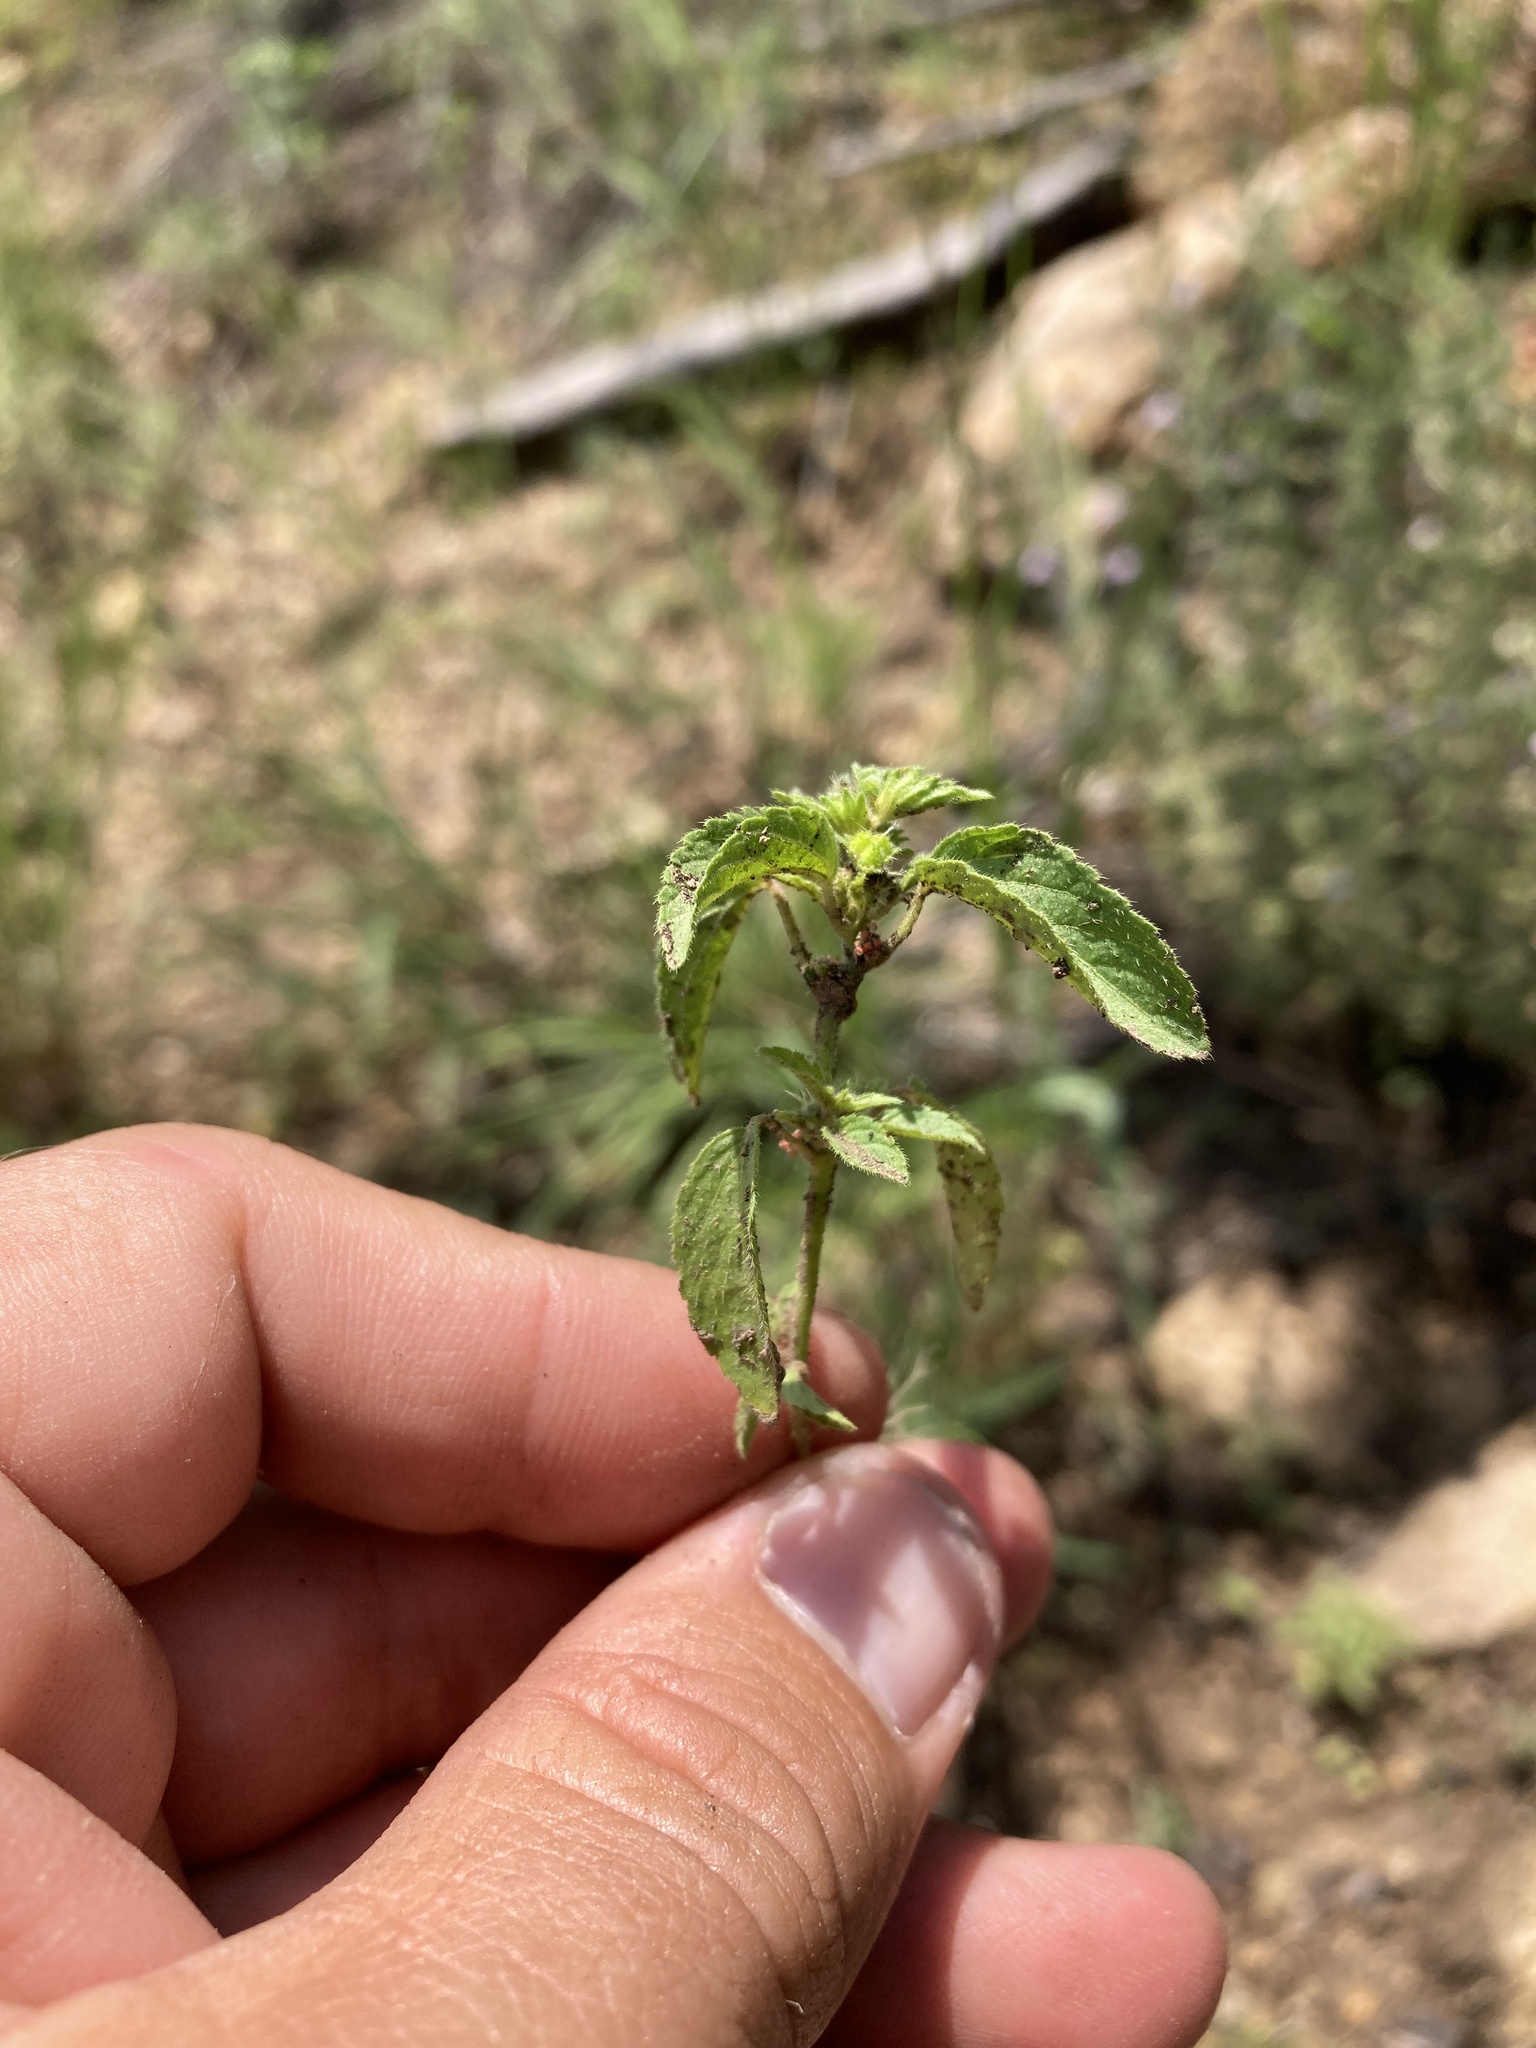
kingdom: Plantae
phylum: Tracheophyta
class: Magnoliopsida
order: Malpighiales
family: Euphorbiaceae
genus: Acalypha
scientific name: Acalypha neomexicana
